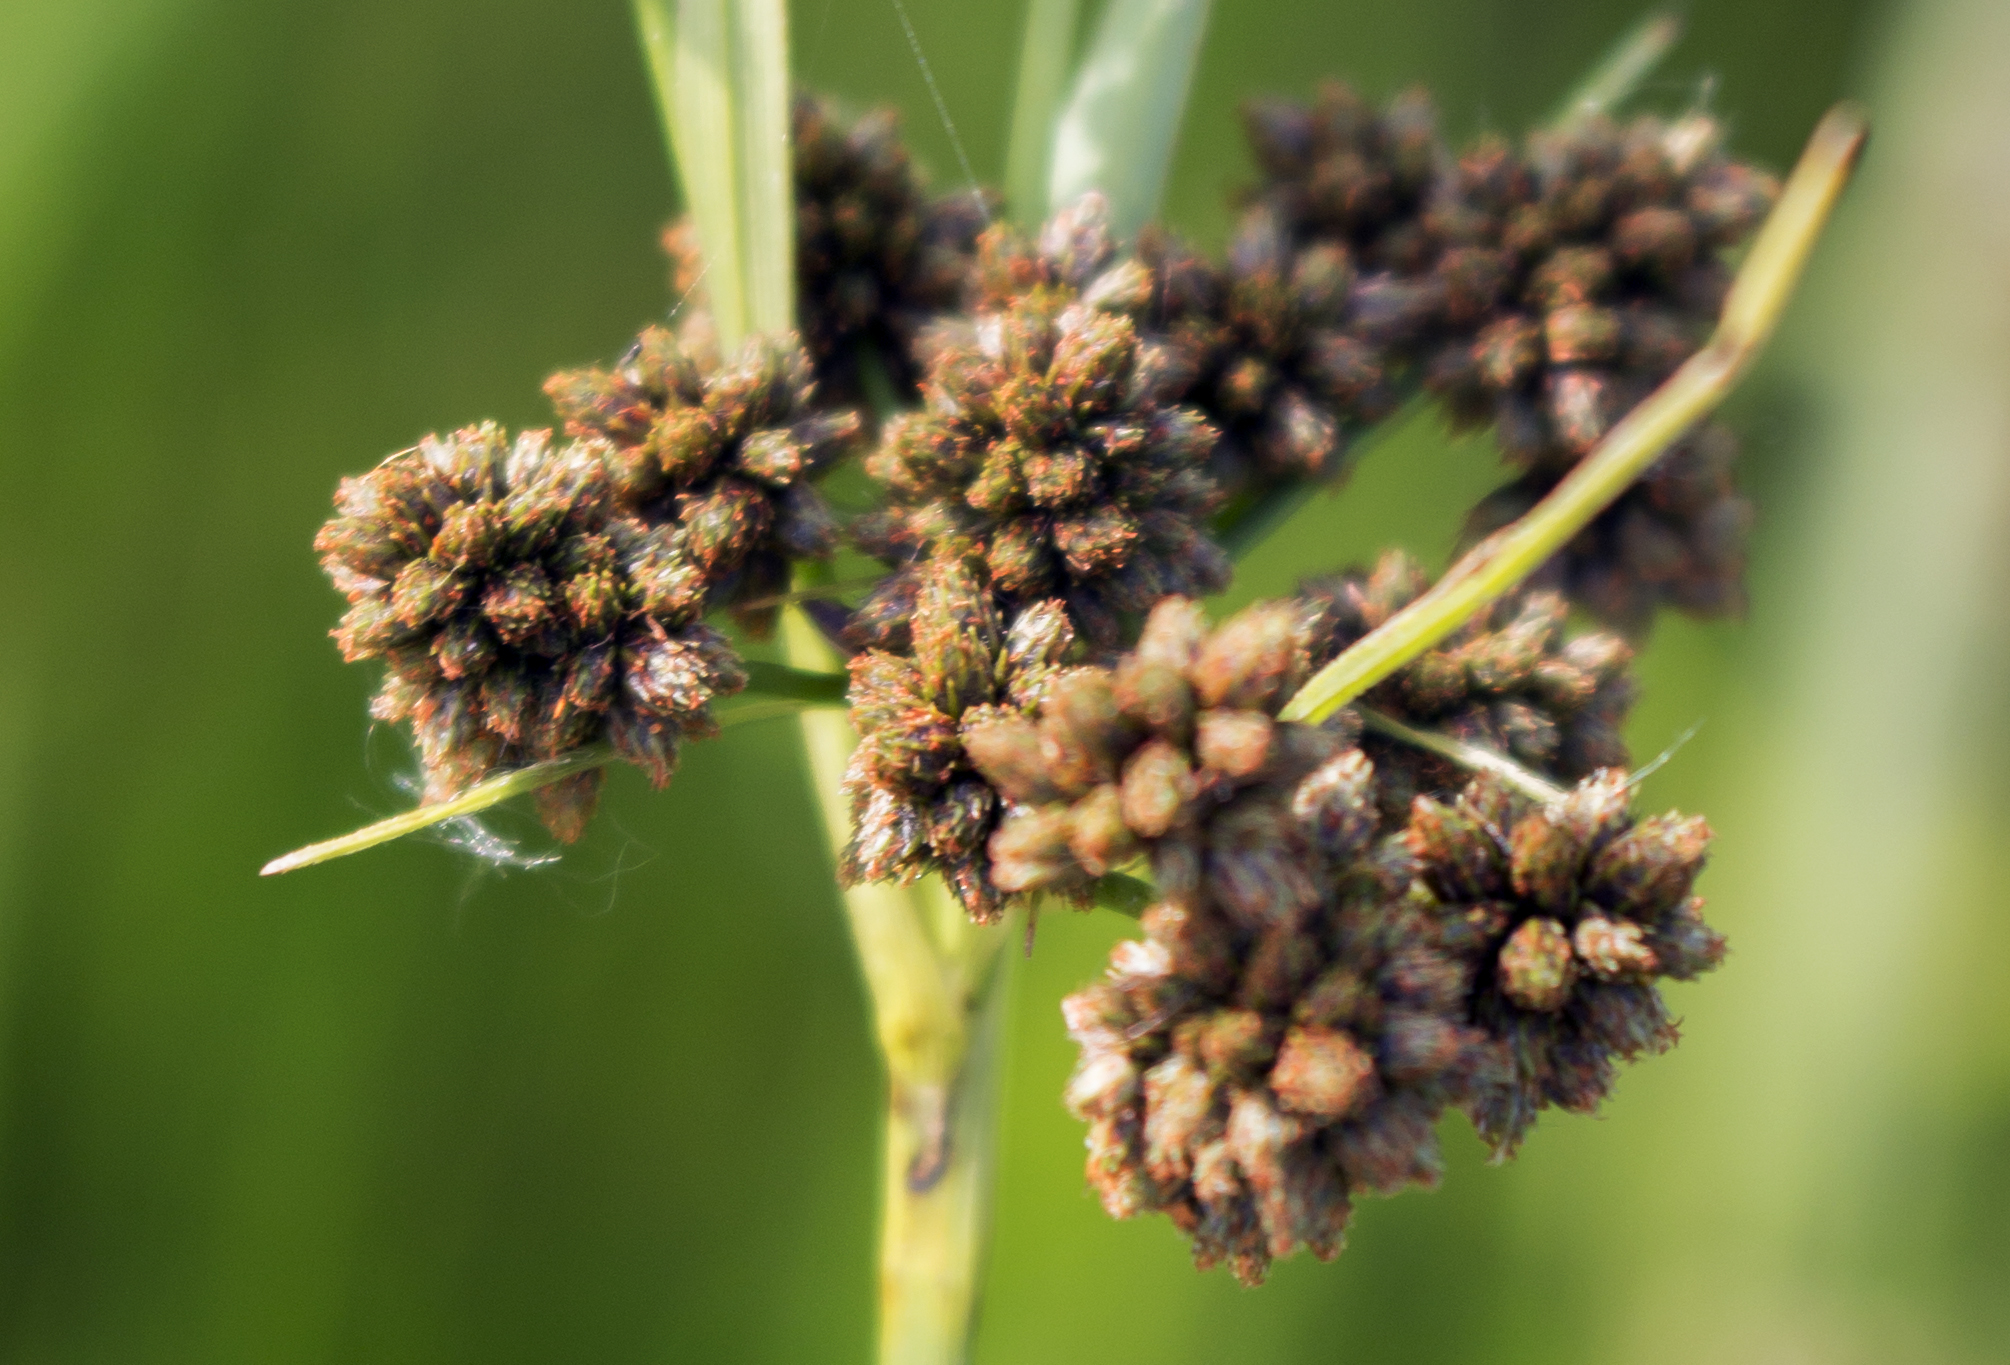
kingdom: Plantae
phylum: Tracheophyta
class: Liliopsida
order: Poales
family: Cyperaceae
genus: Scirpus
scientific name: Scirpus atrovirens
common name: Black bulrush
